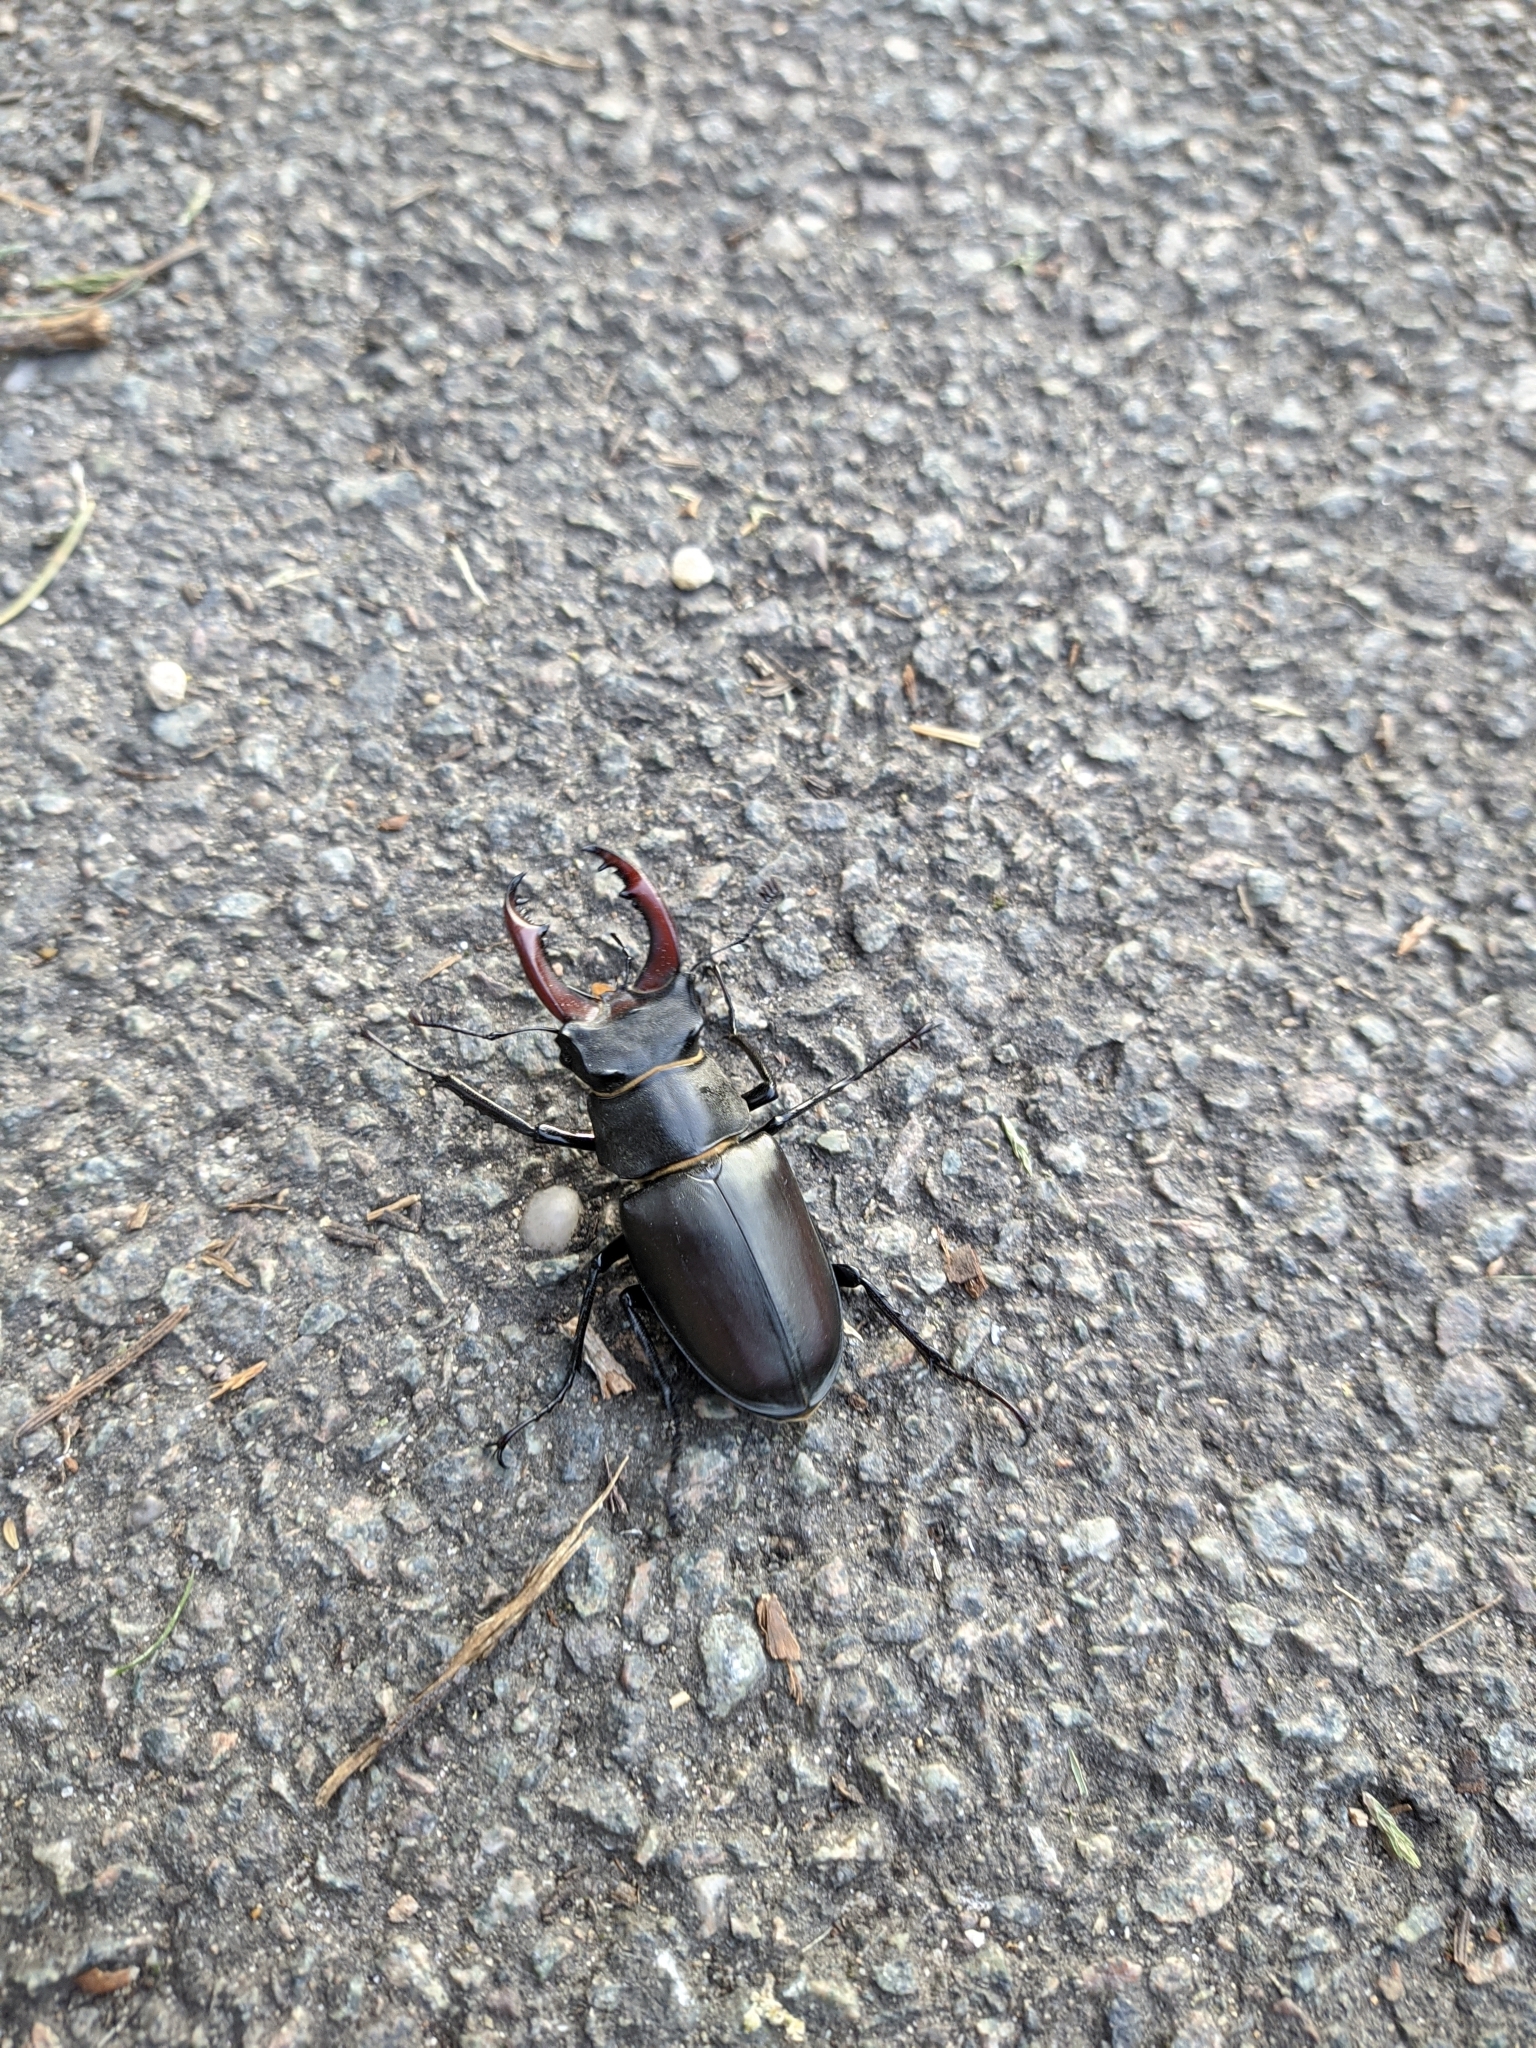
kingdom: Animalia
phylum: Arthropoda
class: Insecta
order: Coleoptera
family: Lucanidae
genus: Lucanus
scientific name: Lucanus cervus
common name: Stag beetle
